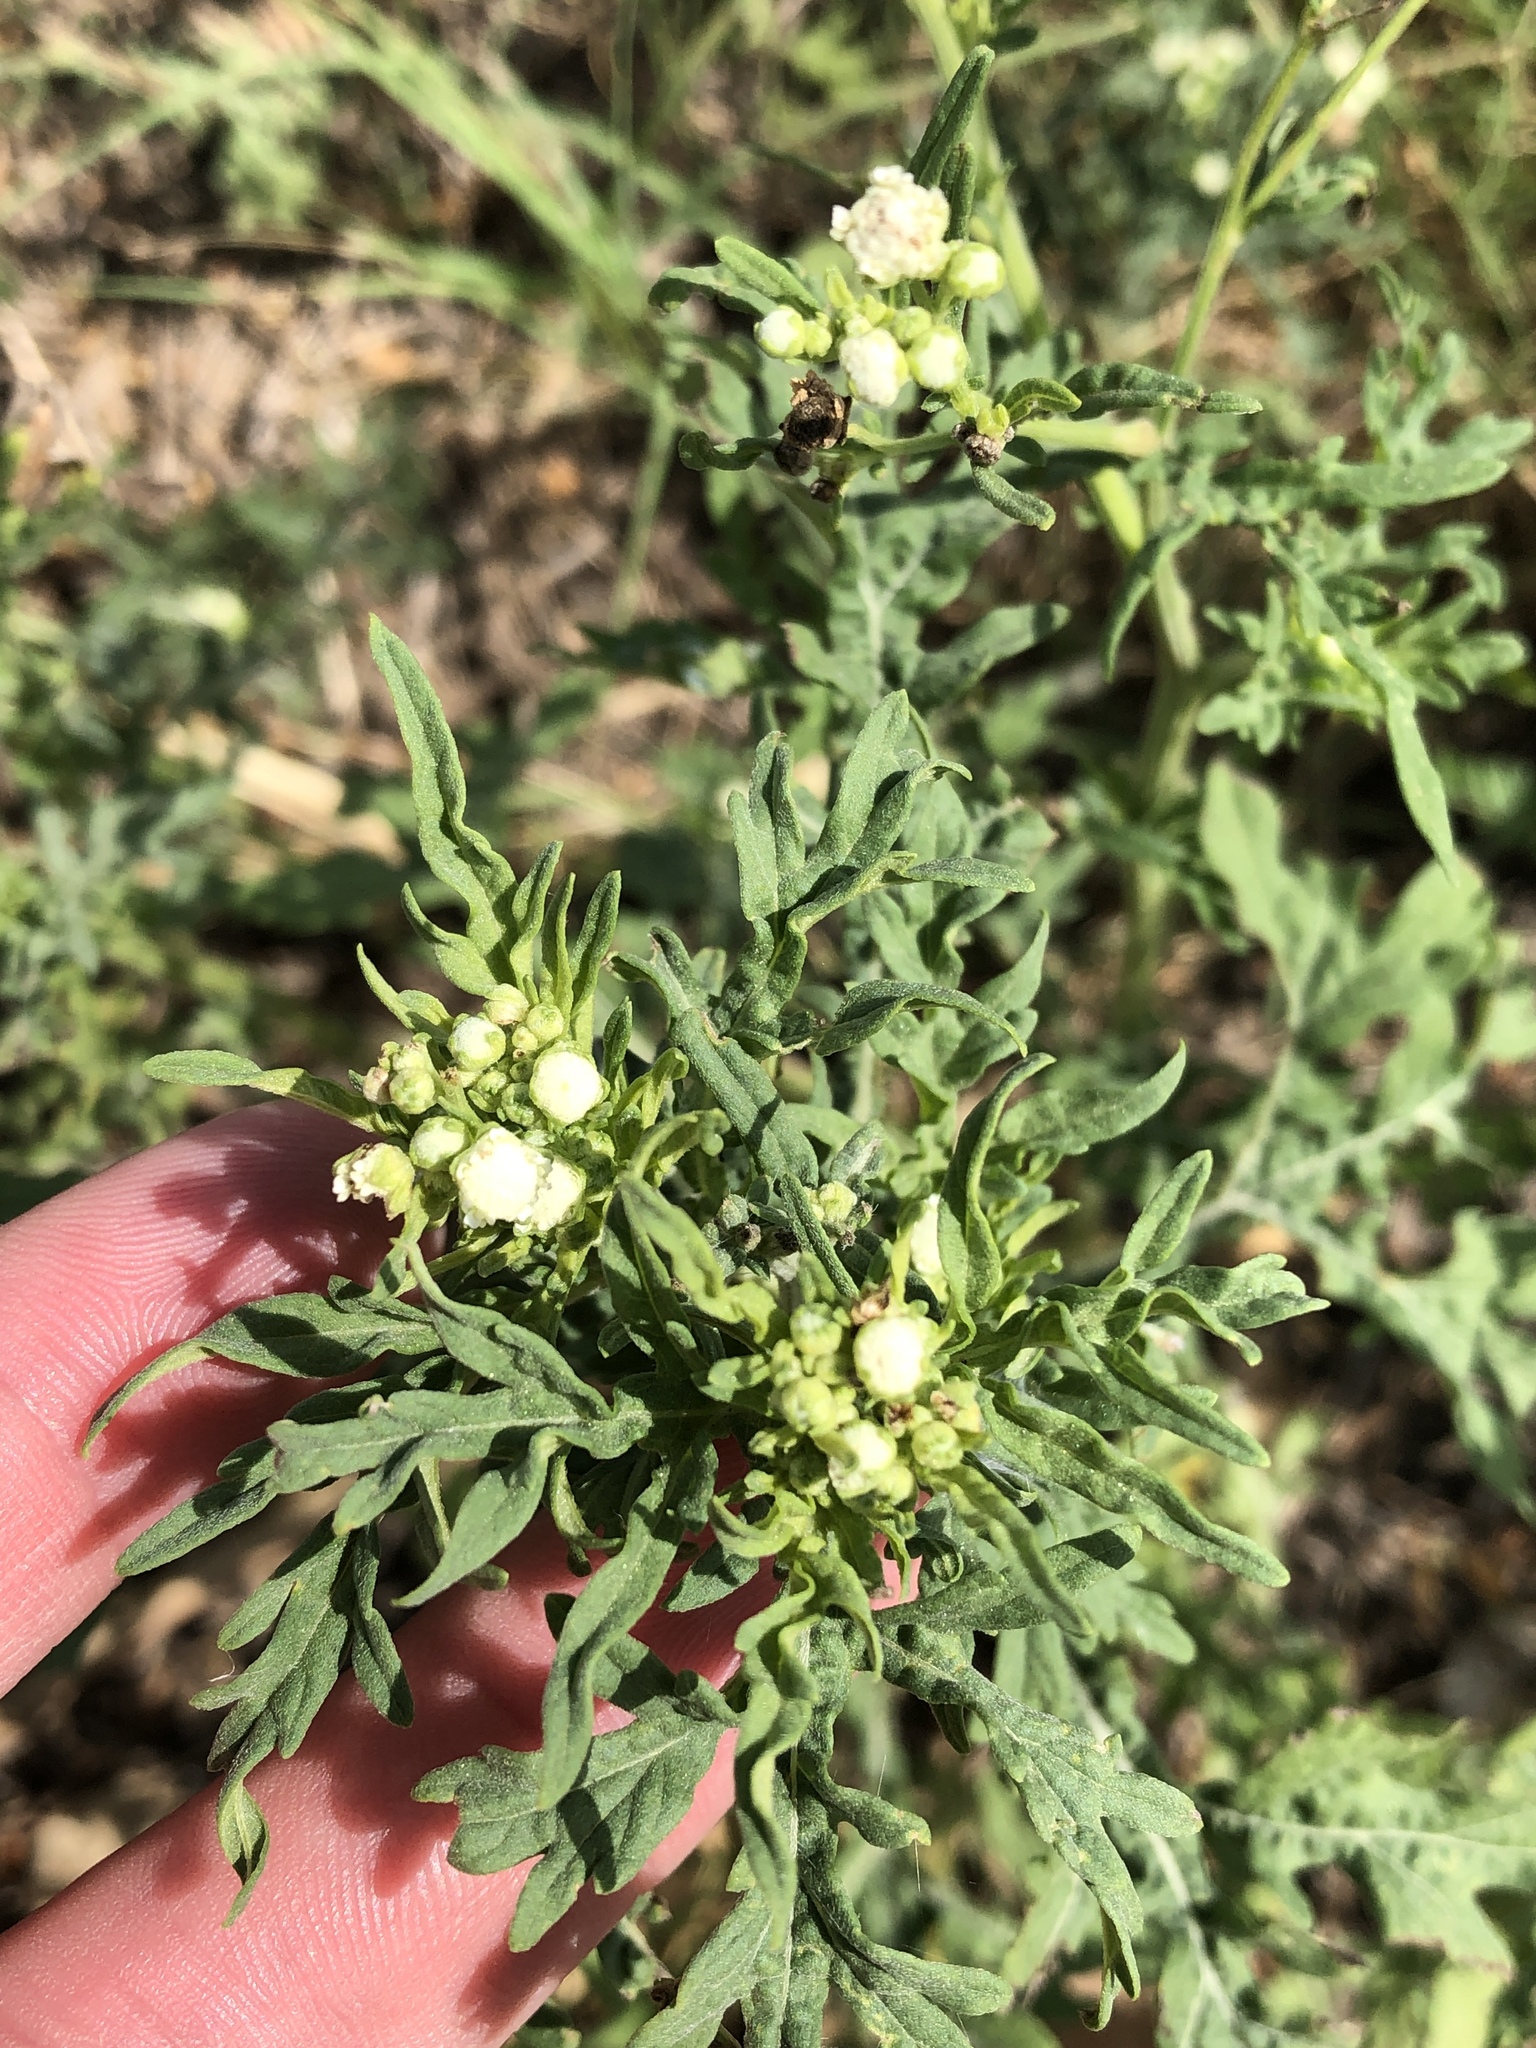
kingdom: Plantae
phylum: Tracheophyta
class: Magnoliopsida
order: Asterales
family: Asteraceae
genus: Parthenium
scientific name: Parthenium hysterophorus
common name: Santa maria feverfew
